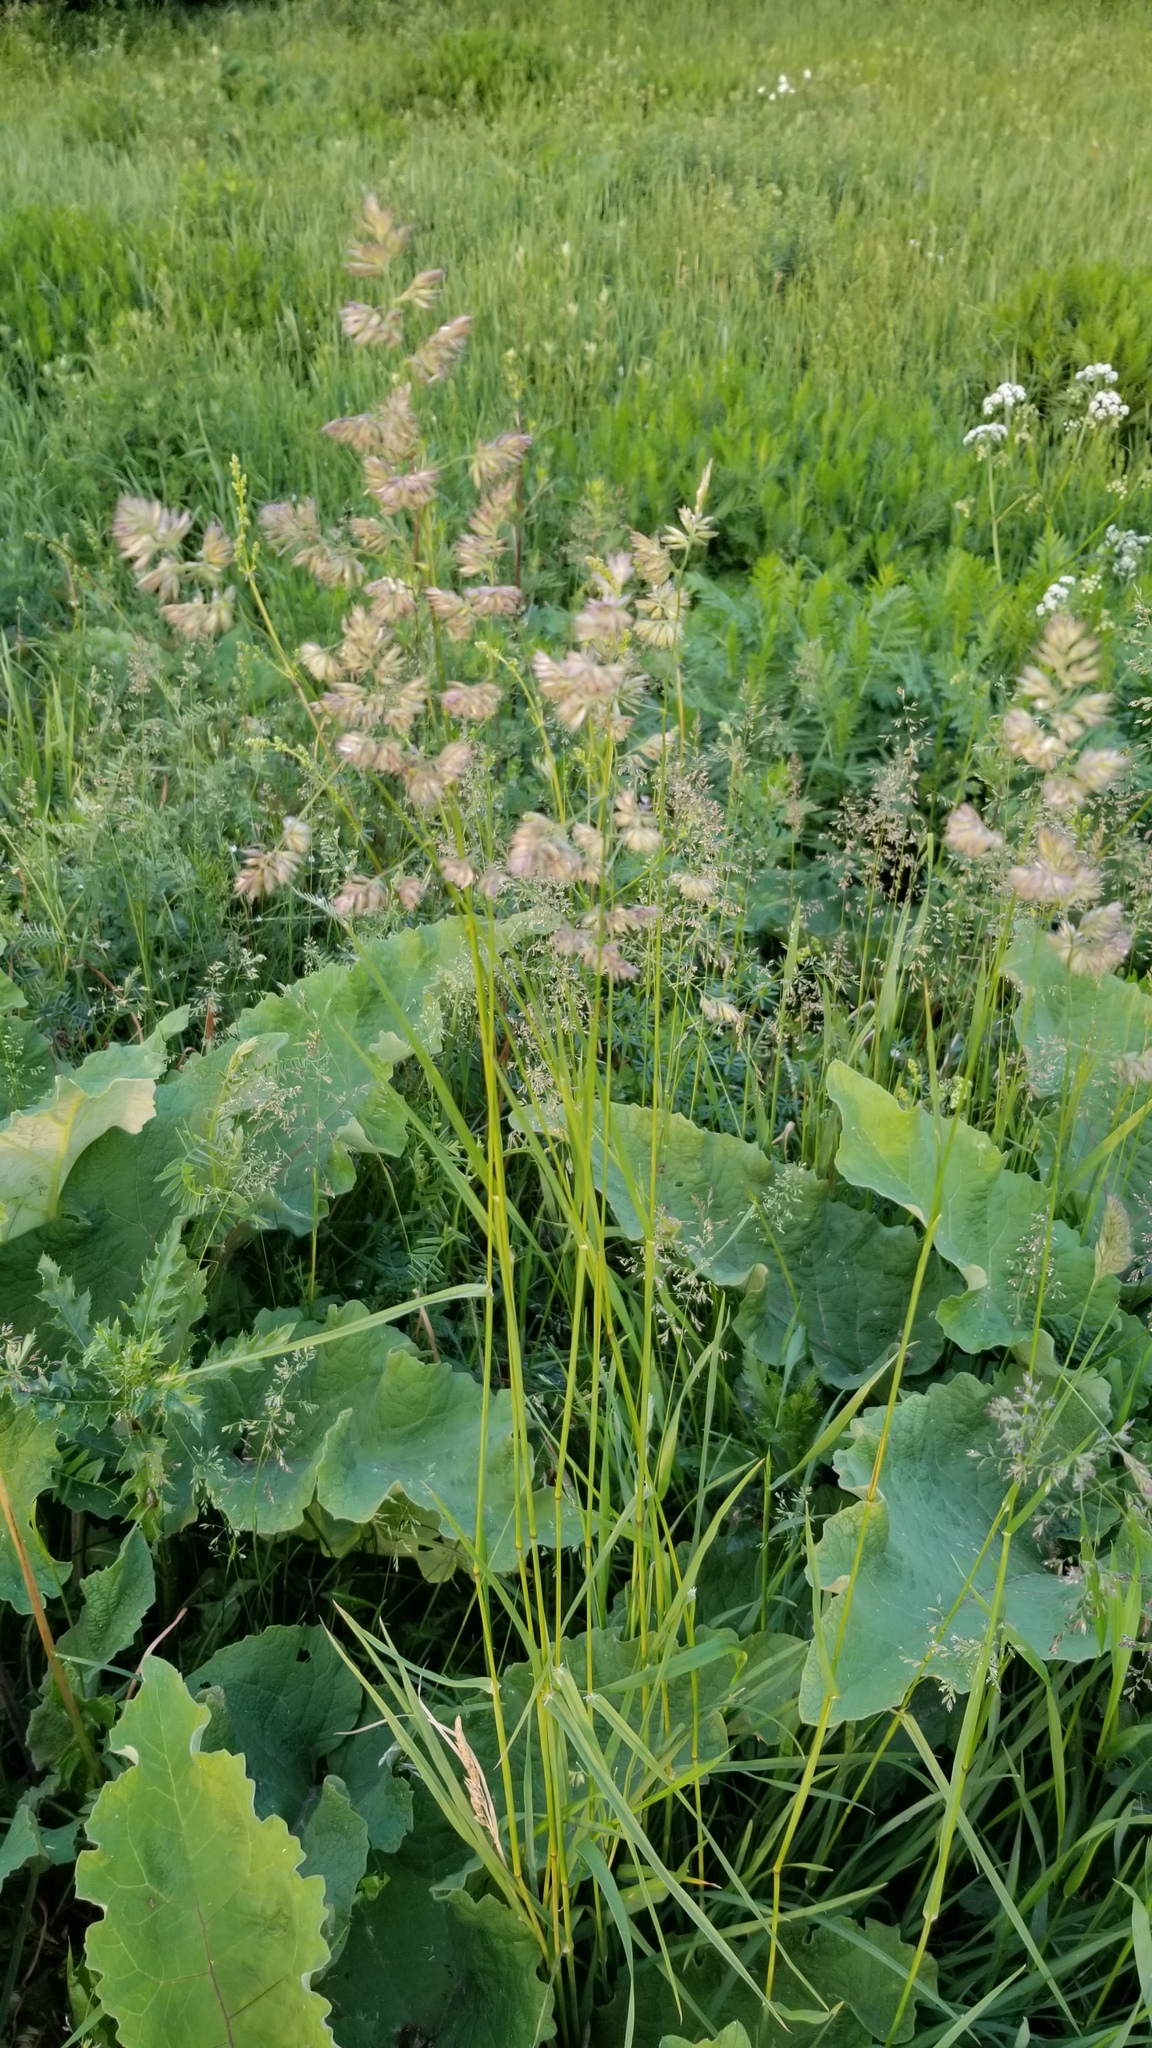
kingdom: Plantae
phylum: Tracheophyta
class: Liliopsida
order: Poales
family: Poaceae
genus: Dactylis
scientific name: Dactylis glomerata
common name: Orchardgrass
